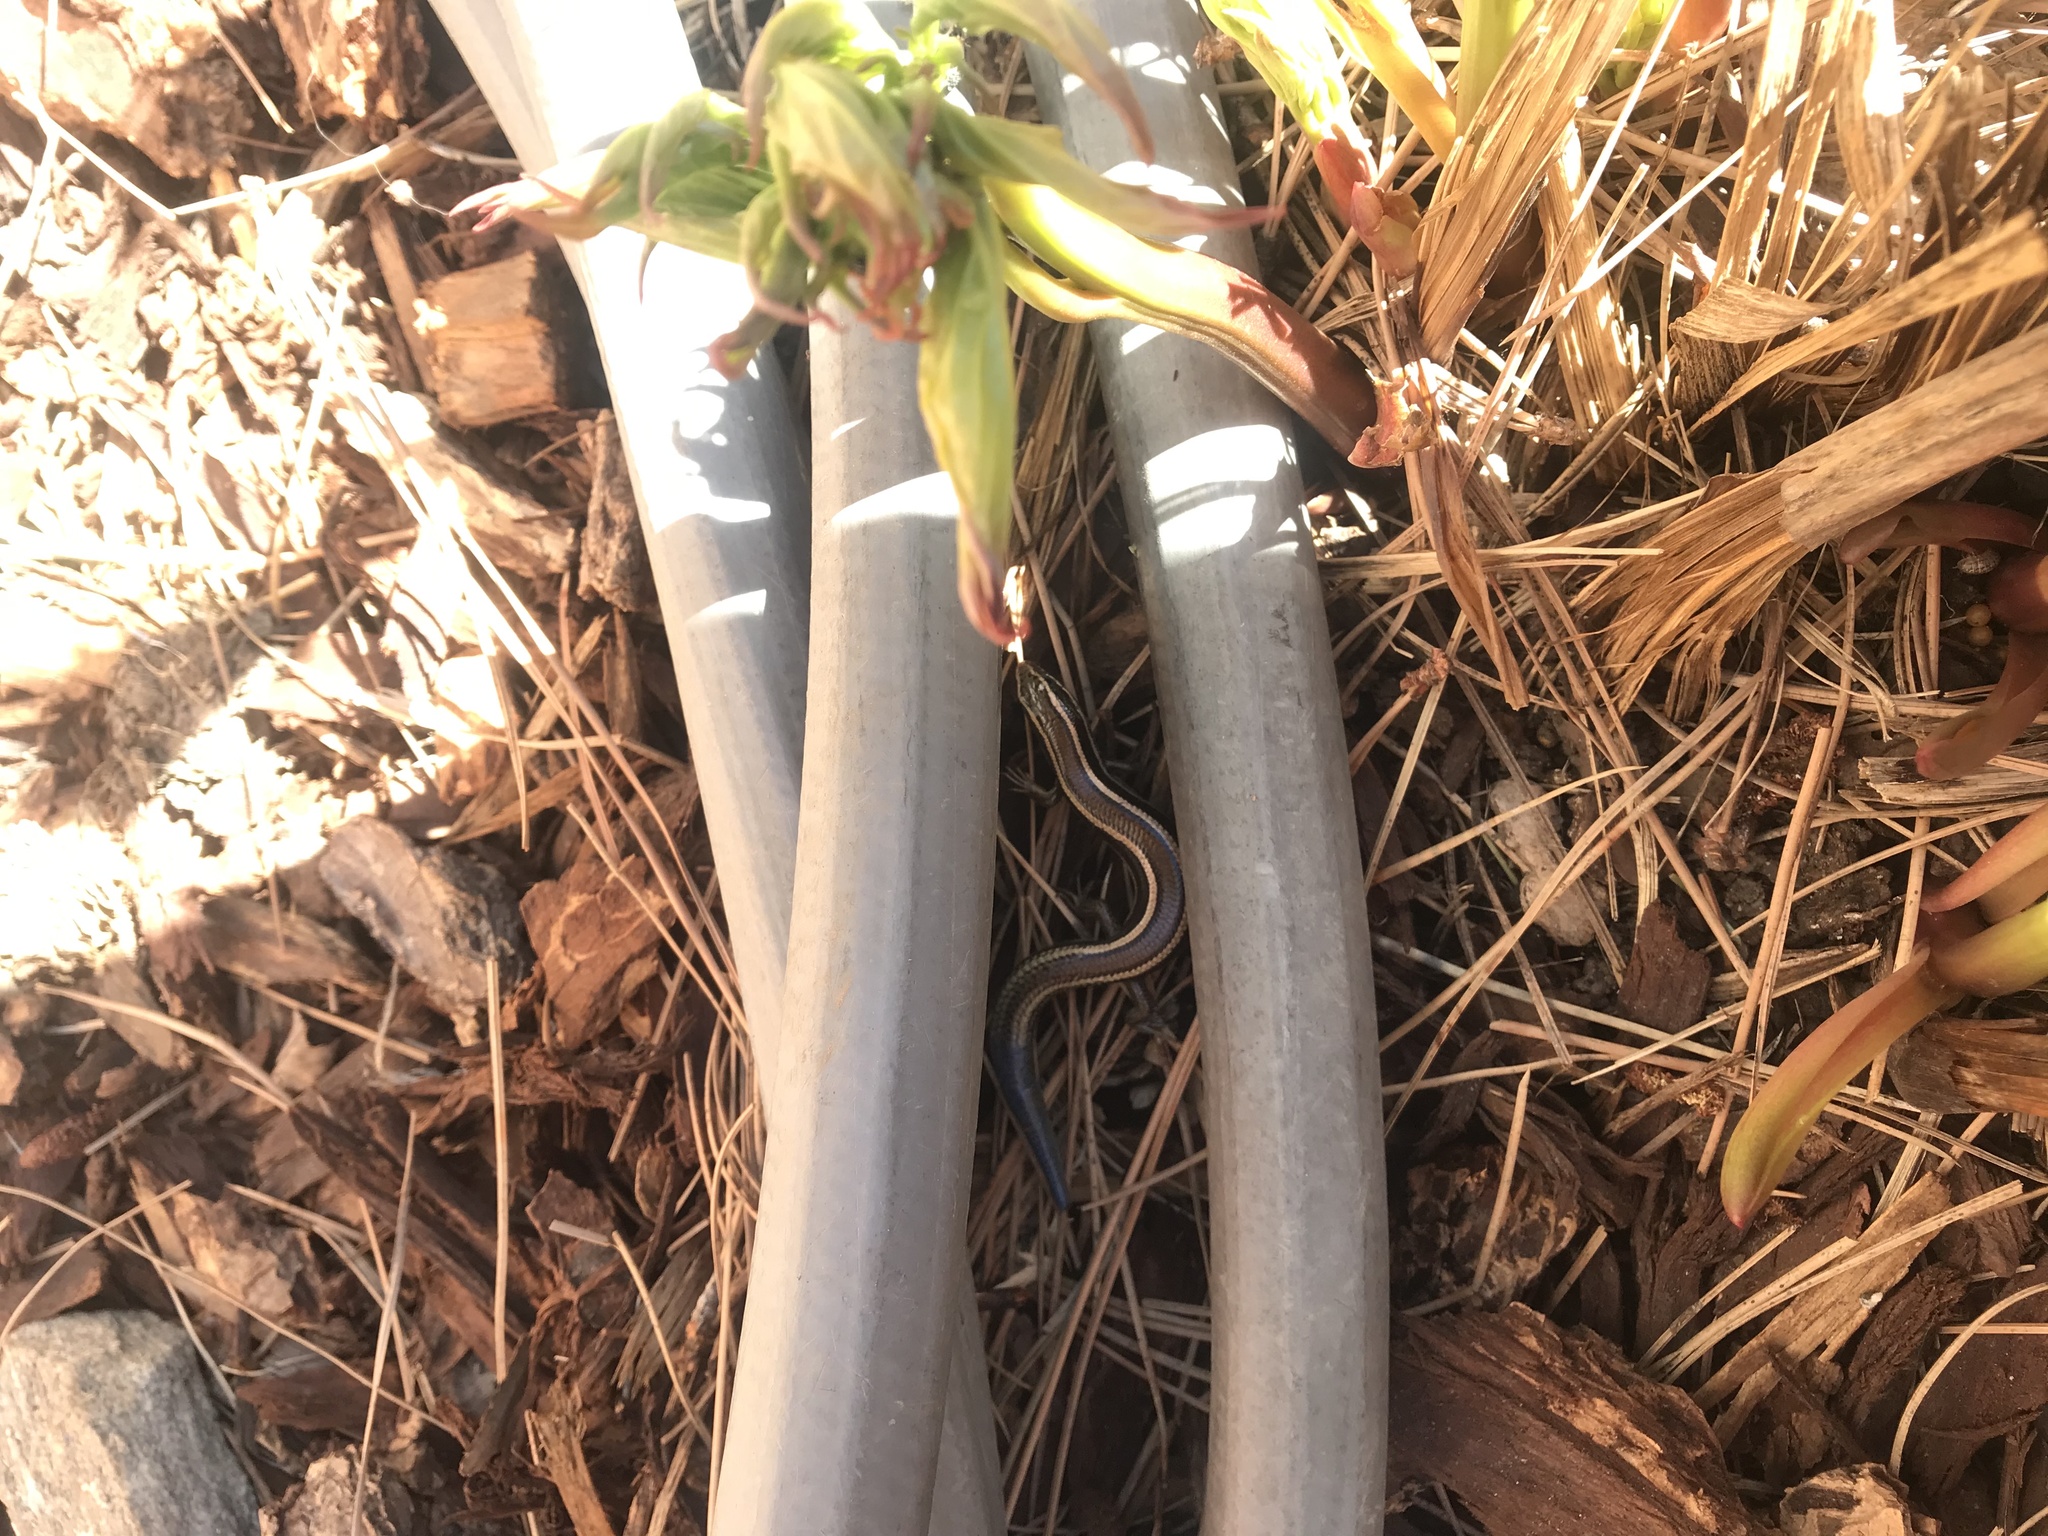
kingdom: Animalia
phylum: Chordata
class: Squamata
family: Scincidae
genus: Plestiodon
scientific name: Plestiodon skiltonianus
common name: Coronado island skink [interparietalis]
